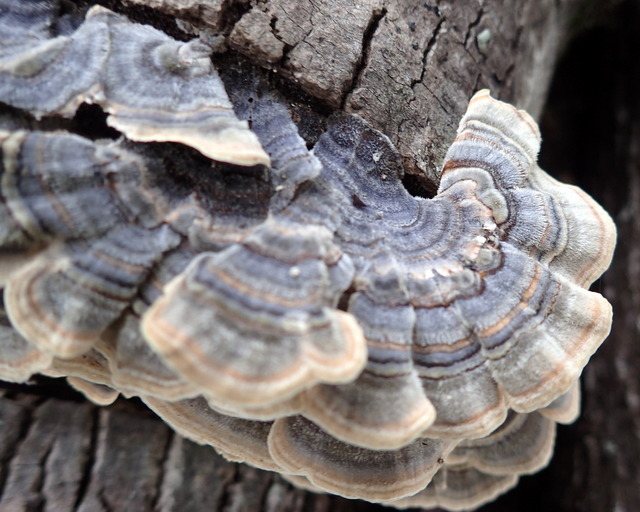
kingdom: Fungi
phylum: Basidiomycota
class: Agaricomycetes
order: Polyporales
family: Polyporaceae
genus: Trametes
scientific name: Trametes versicolor
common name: Turkeytail
